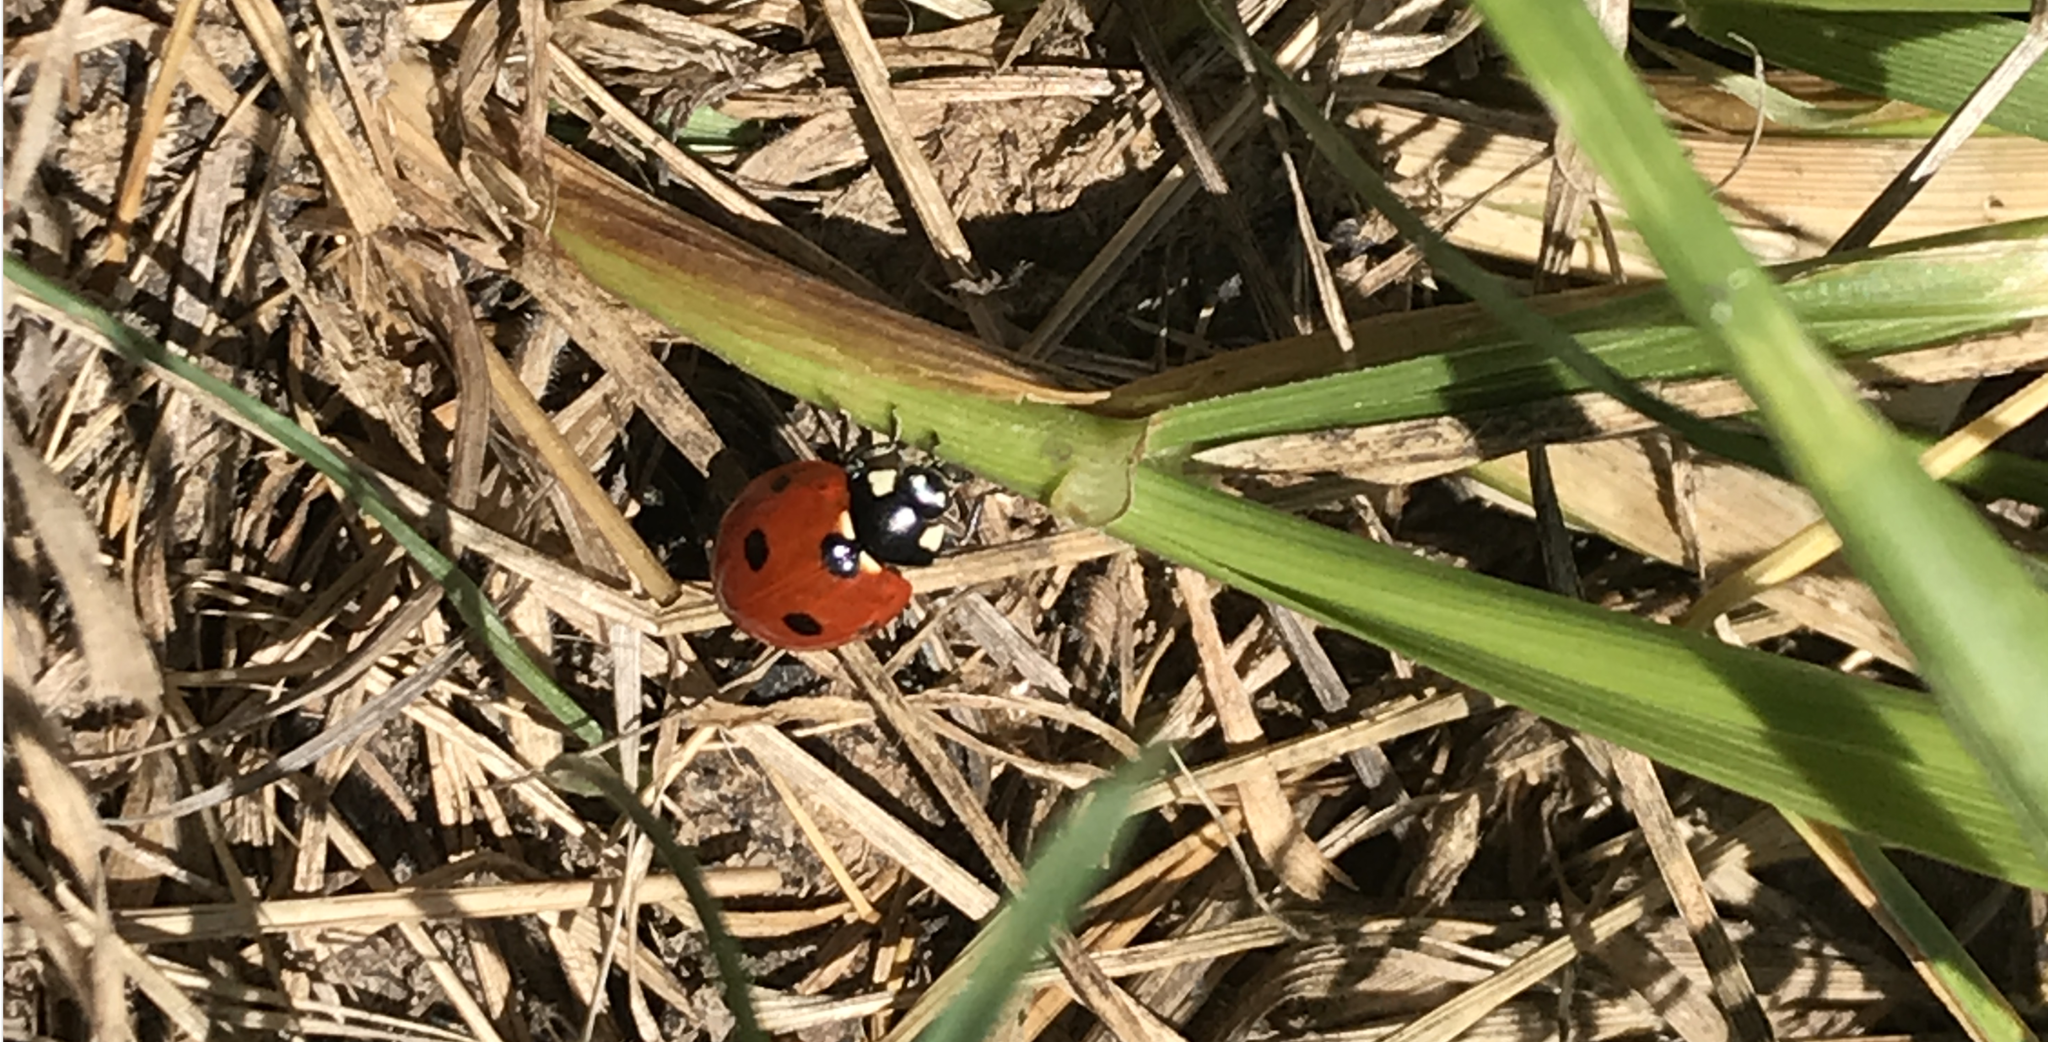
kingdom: Animalia
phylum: Arthropoda
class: Insecta
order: Coleoptera
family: Coccinellidae
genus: Coccinella
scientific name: Coccinella septempunctata
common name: Sevenspotted lady beetle
